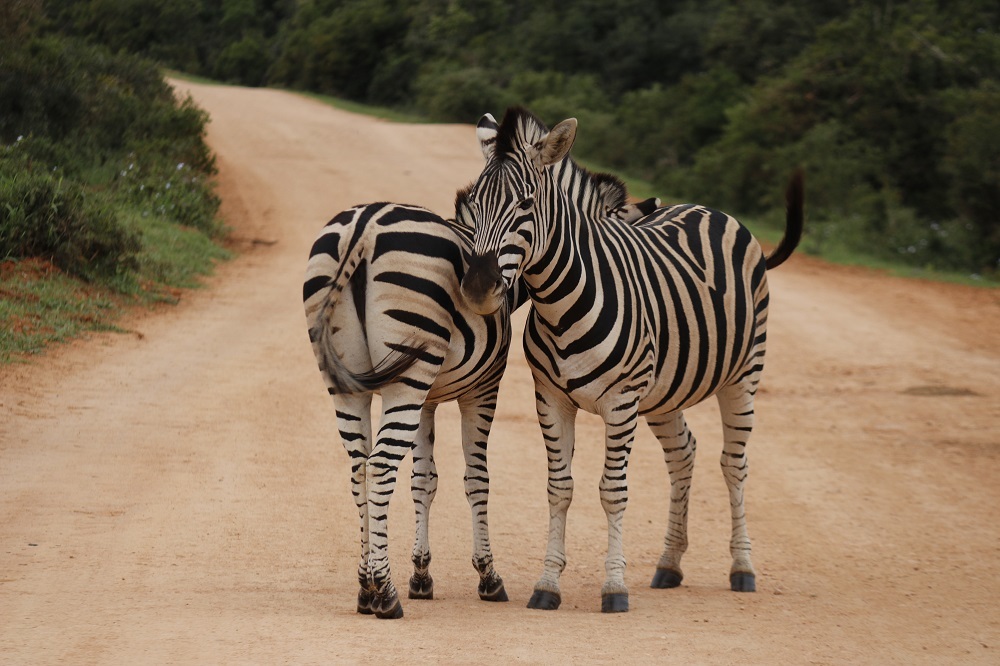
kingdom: Animalia
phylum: Chordata
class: Mammalia
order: Perissodactyla
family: Equidae
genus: Equus
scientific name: Equus quagga
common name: Plains zebra
